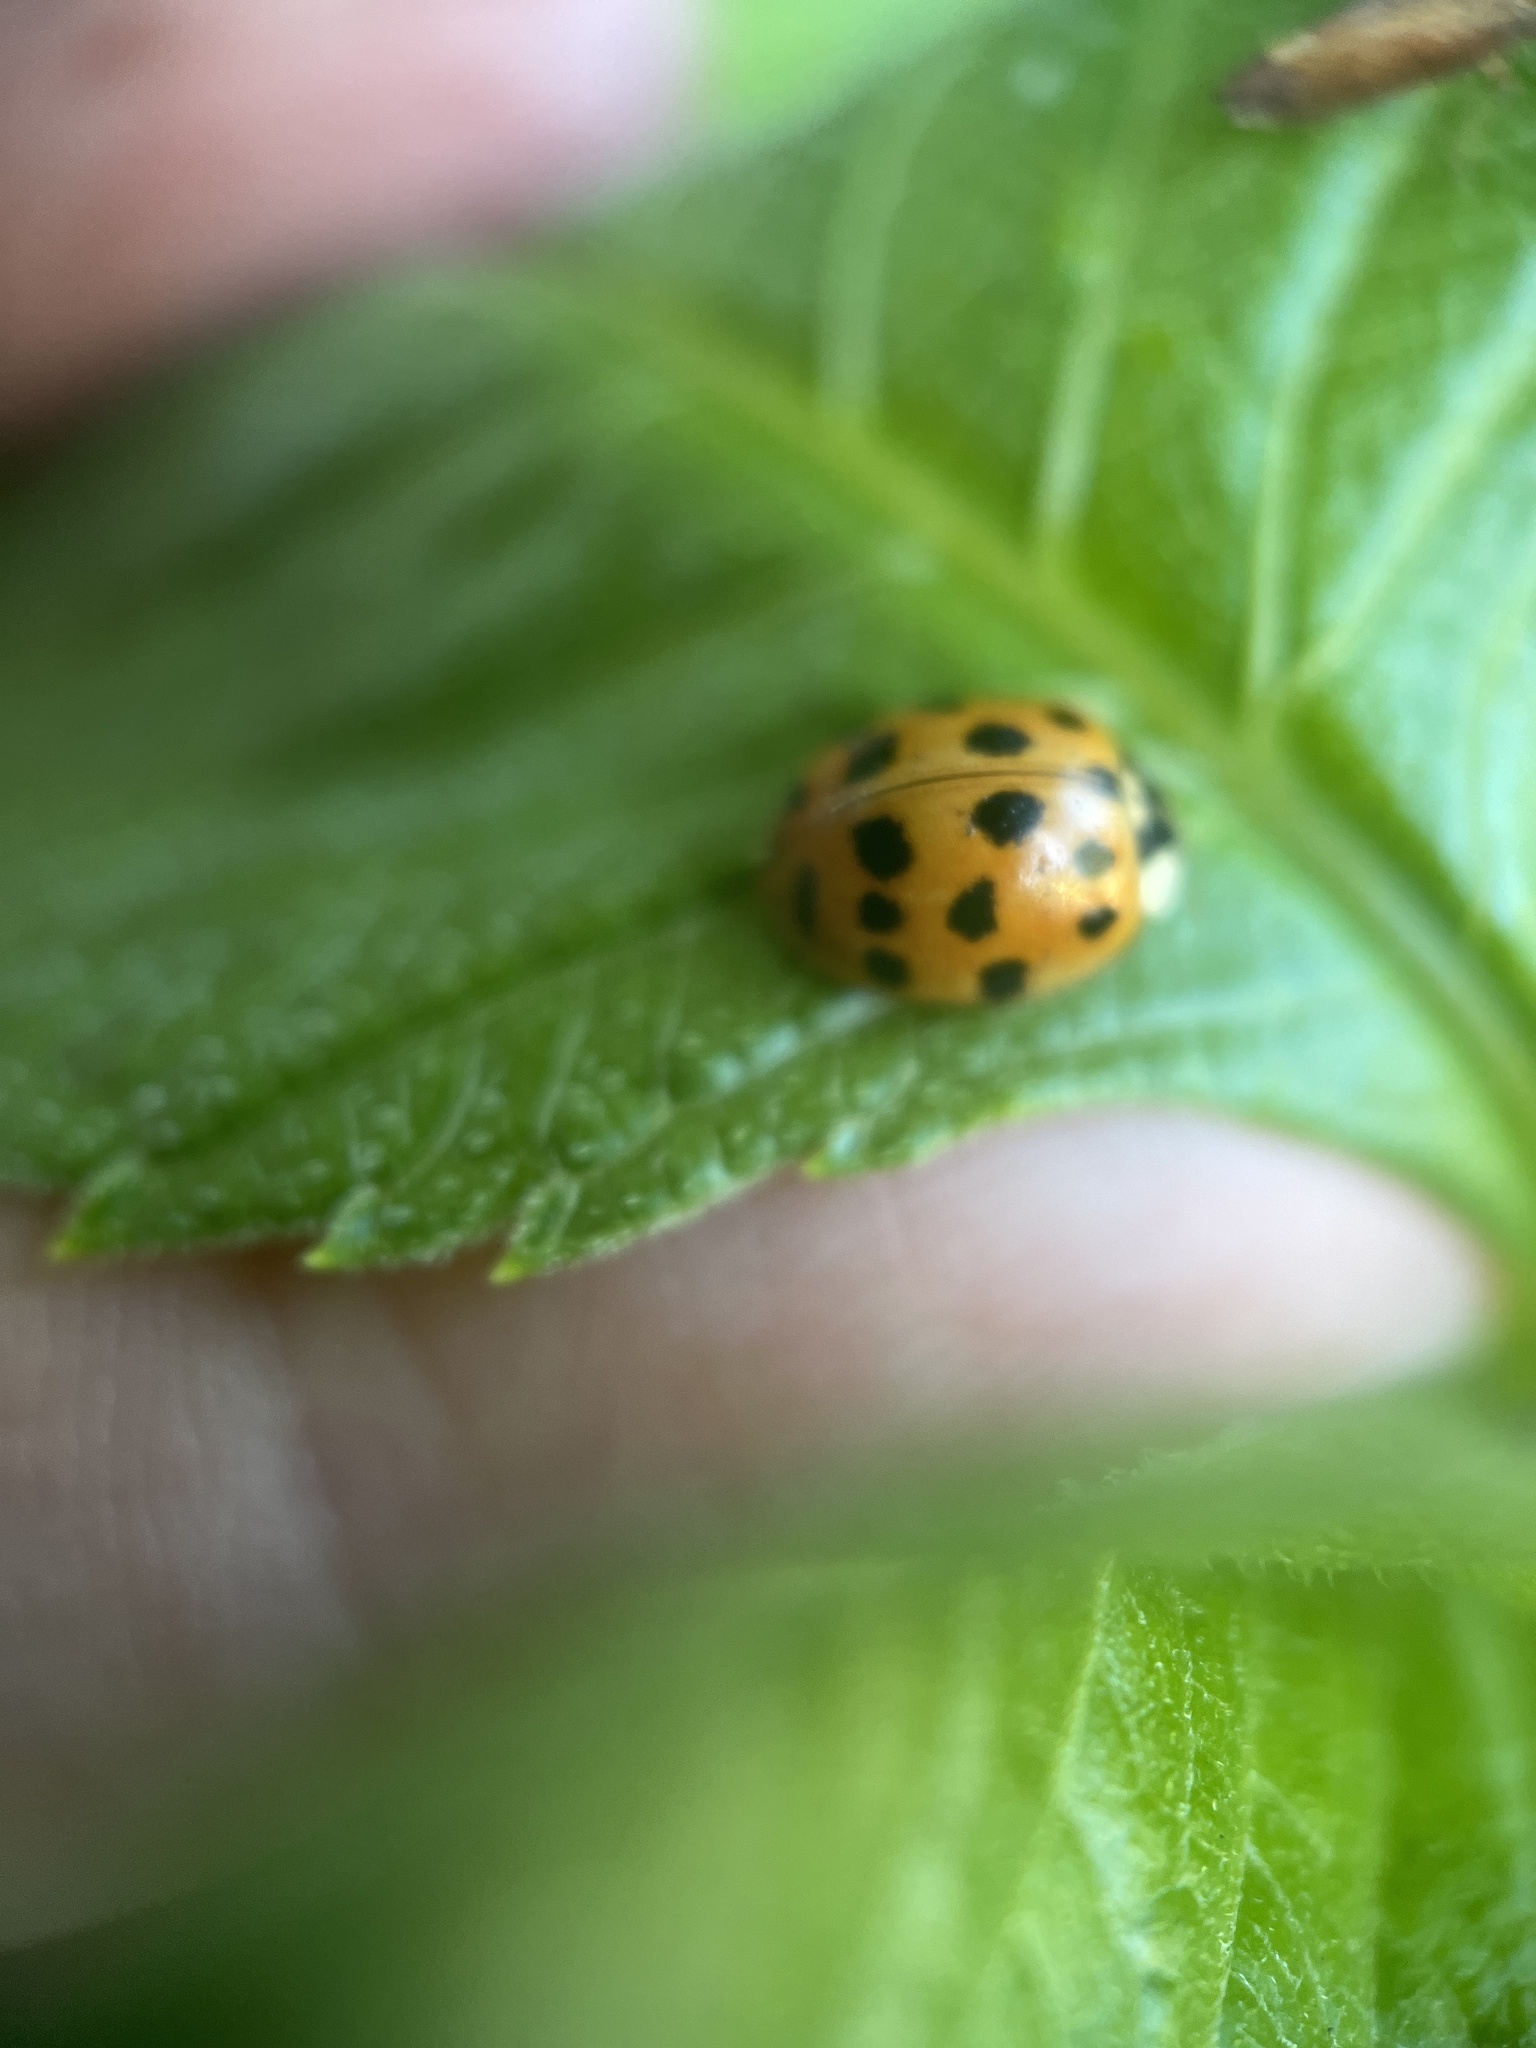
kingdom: Animalia
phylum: Arthropoda
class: Insecta
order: Coleoptera
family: Coccinellidae
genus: Harmonia
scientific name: Harmonia axyridis
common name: Harlequin ladybird
